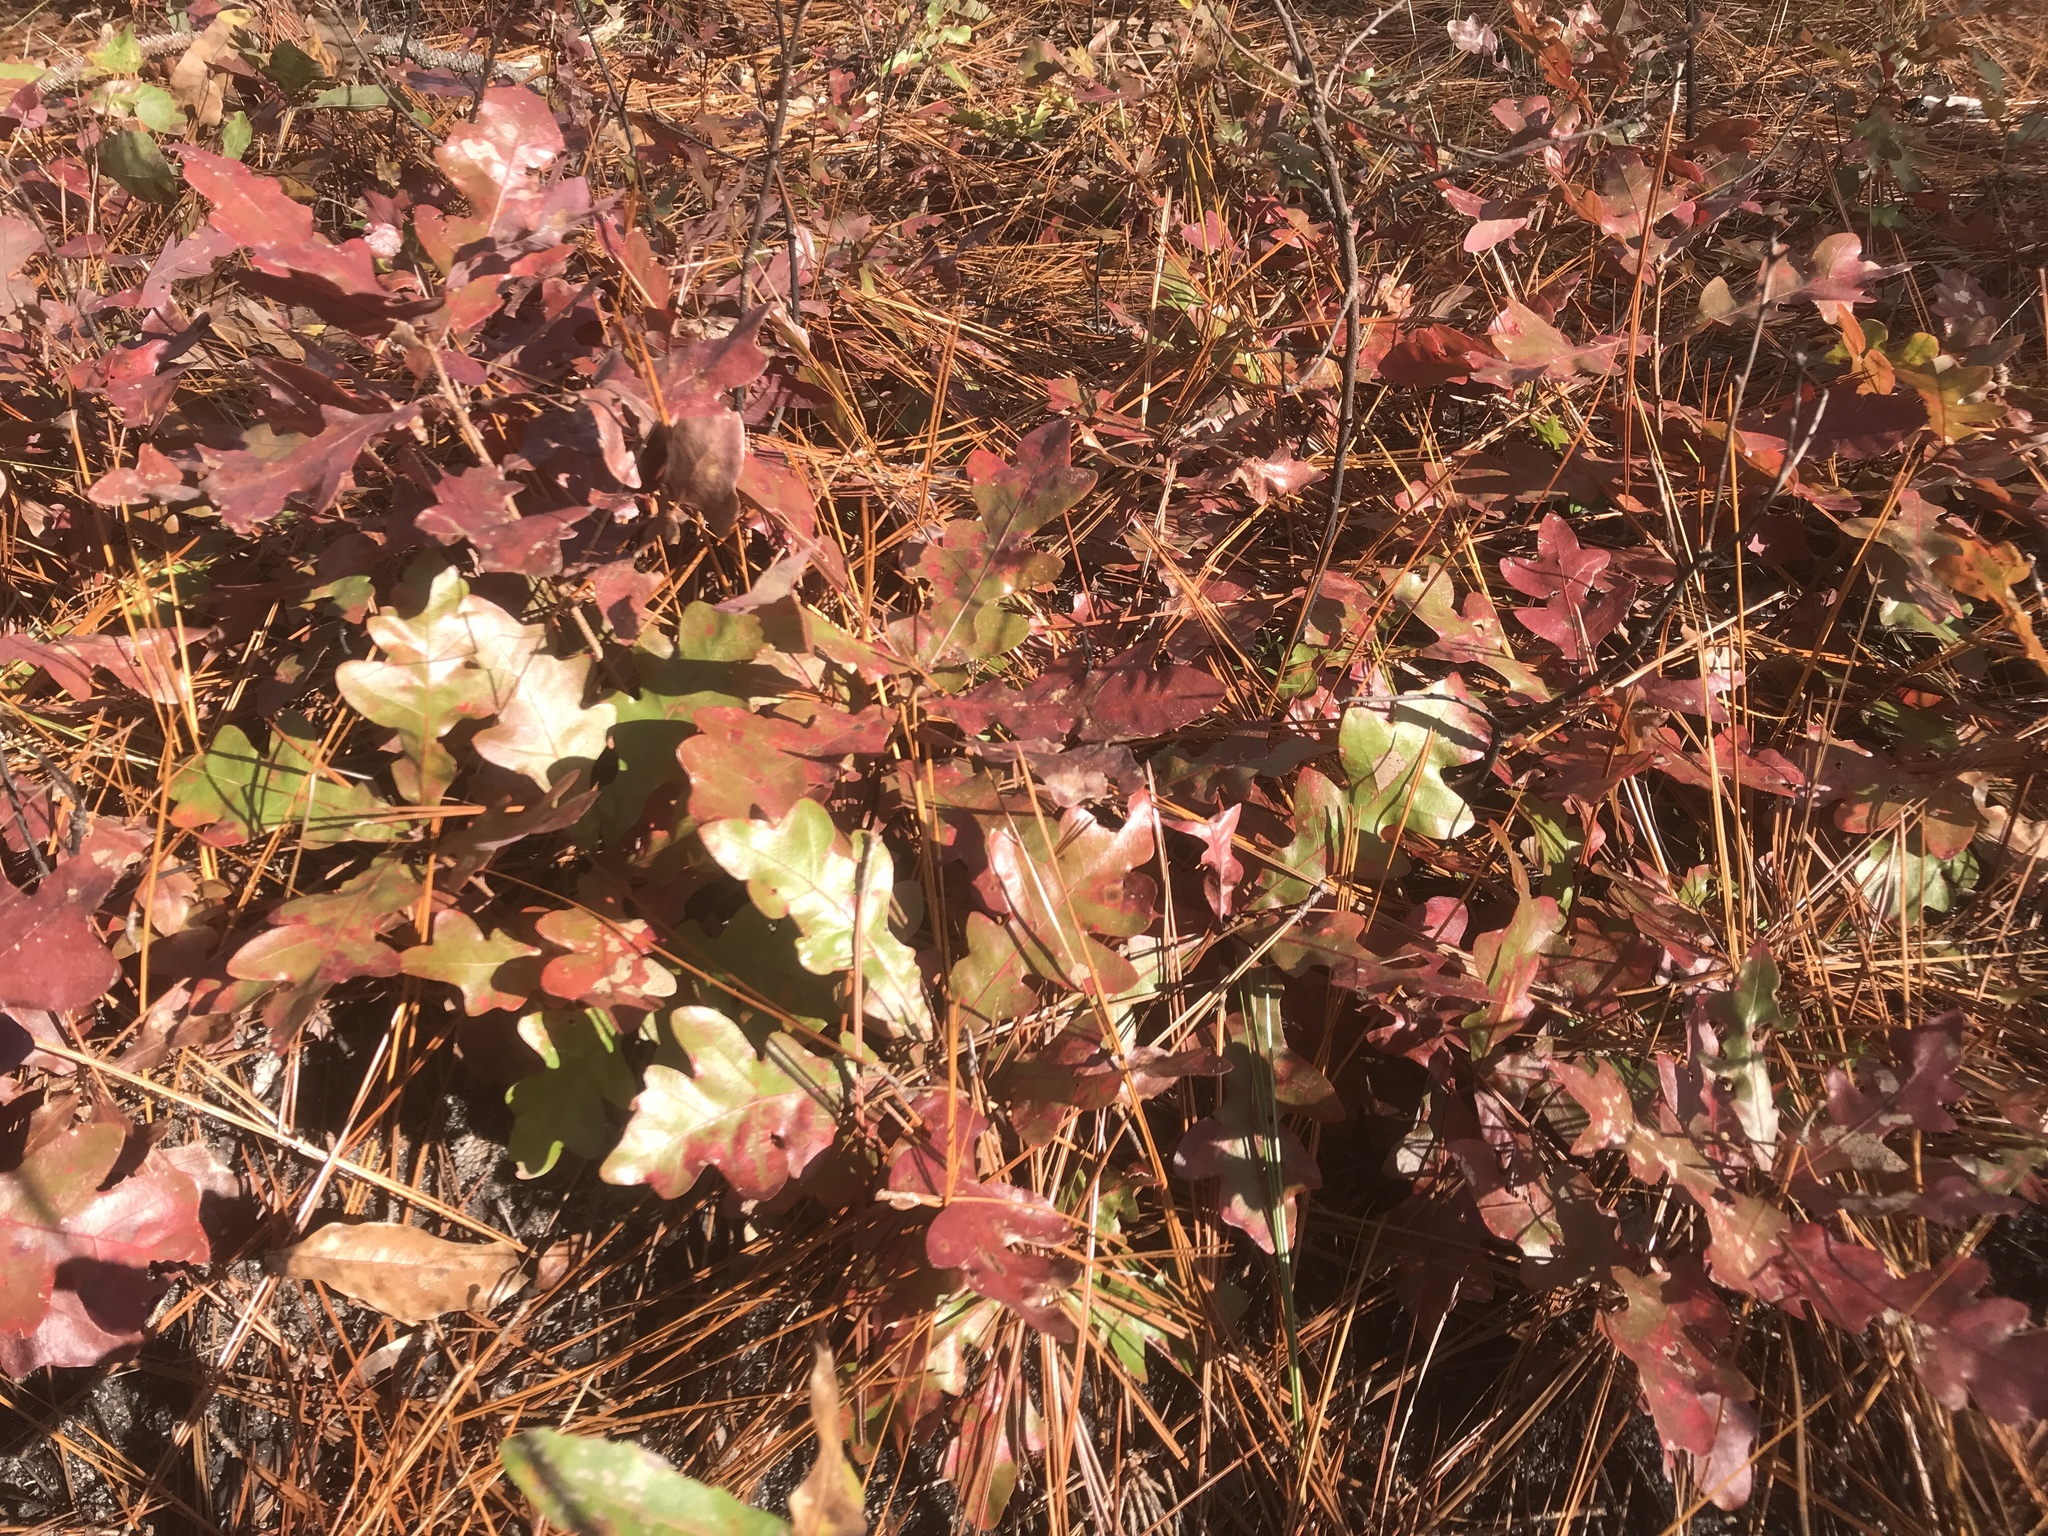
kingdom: Plantae
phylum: Tracheophyta
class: Magnoliopsida
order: Fagales
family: Fagaceae
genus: Quercus
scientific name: Quercus margaretiae
